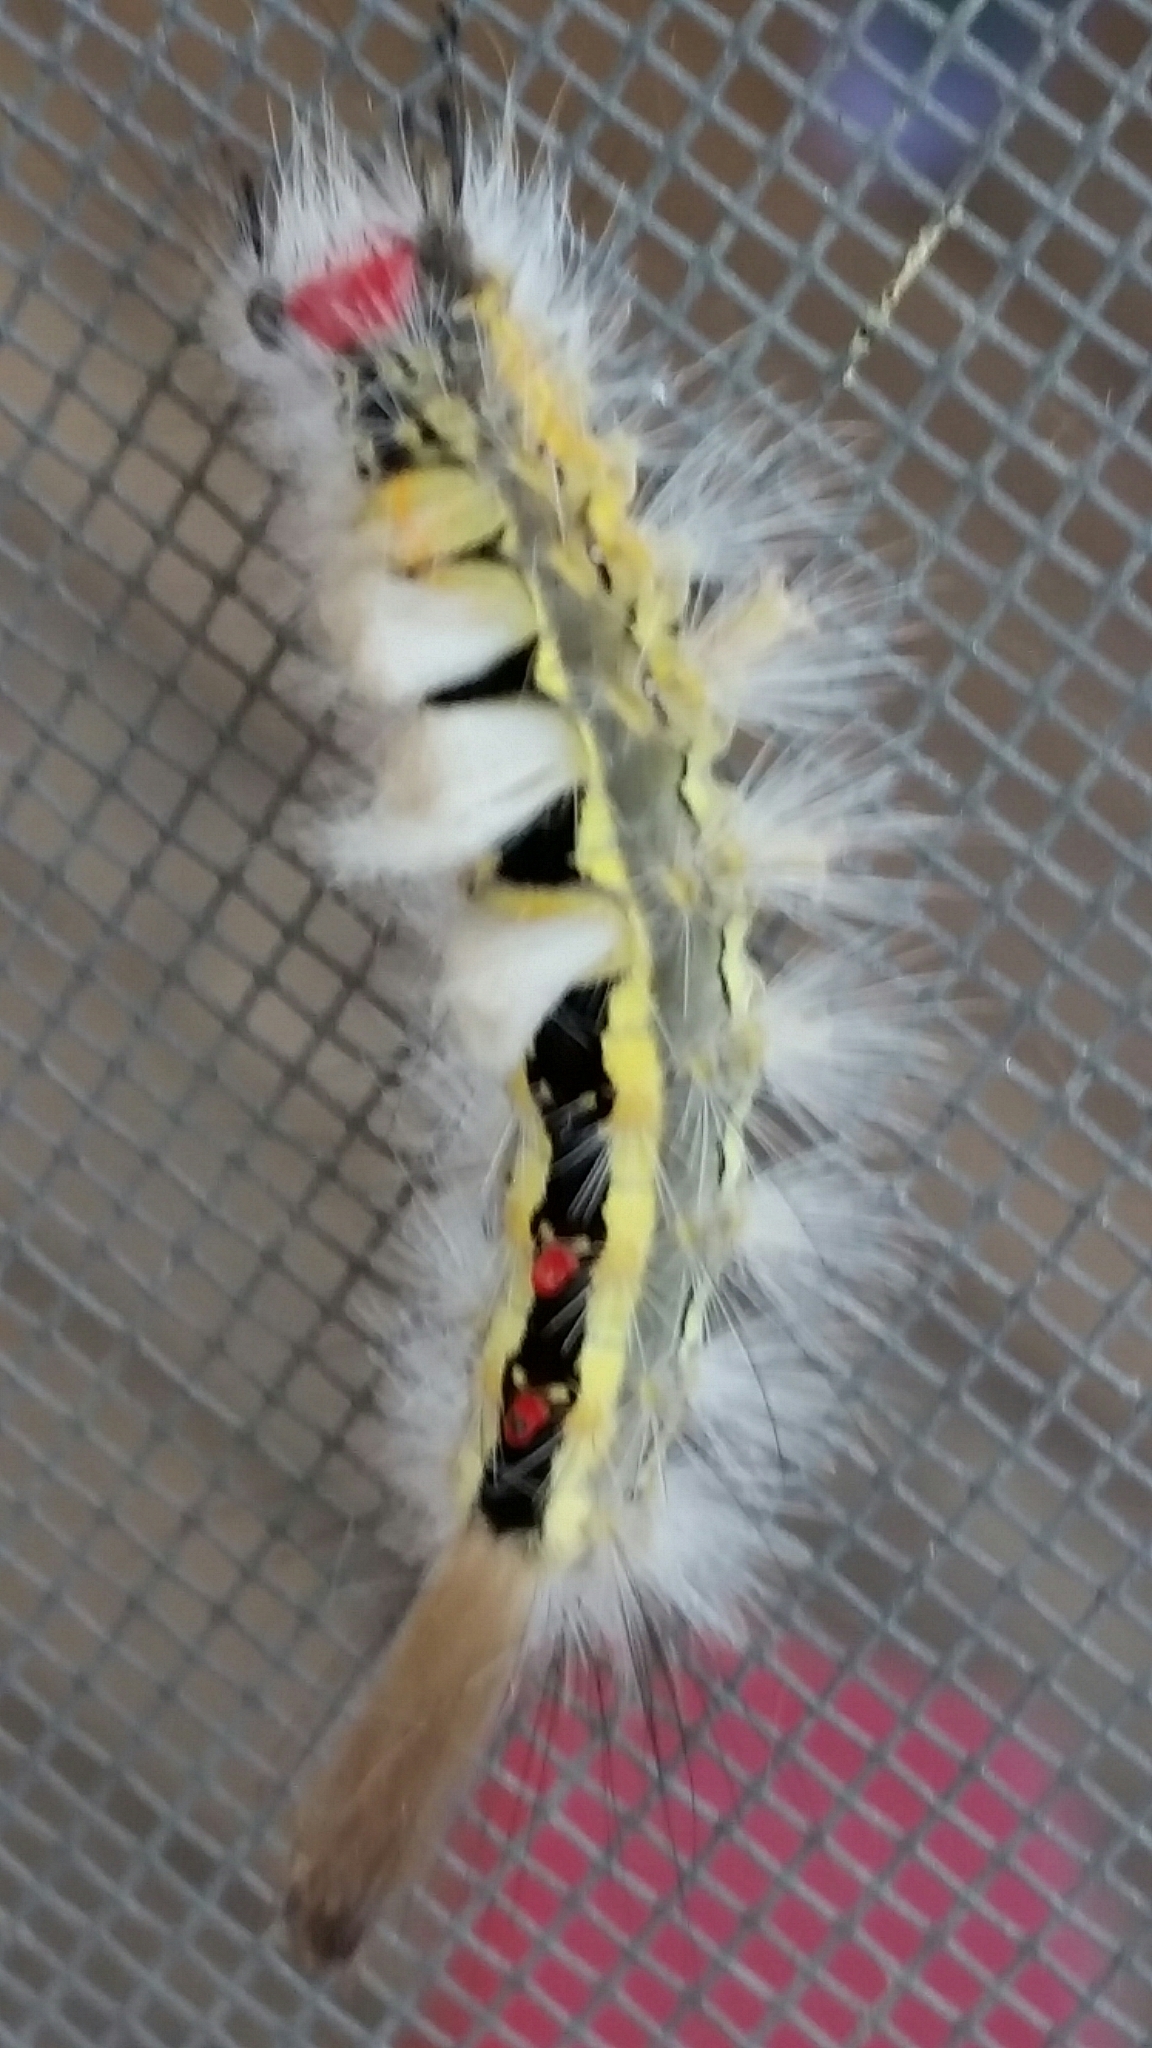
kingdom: Animalia
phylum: Arthropoda
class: Insecta
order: Lepidoptera
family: Erebidae
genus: Orgyia
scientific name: Orgyia leucostigma
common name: White-marked tussock moth
